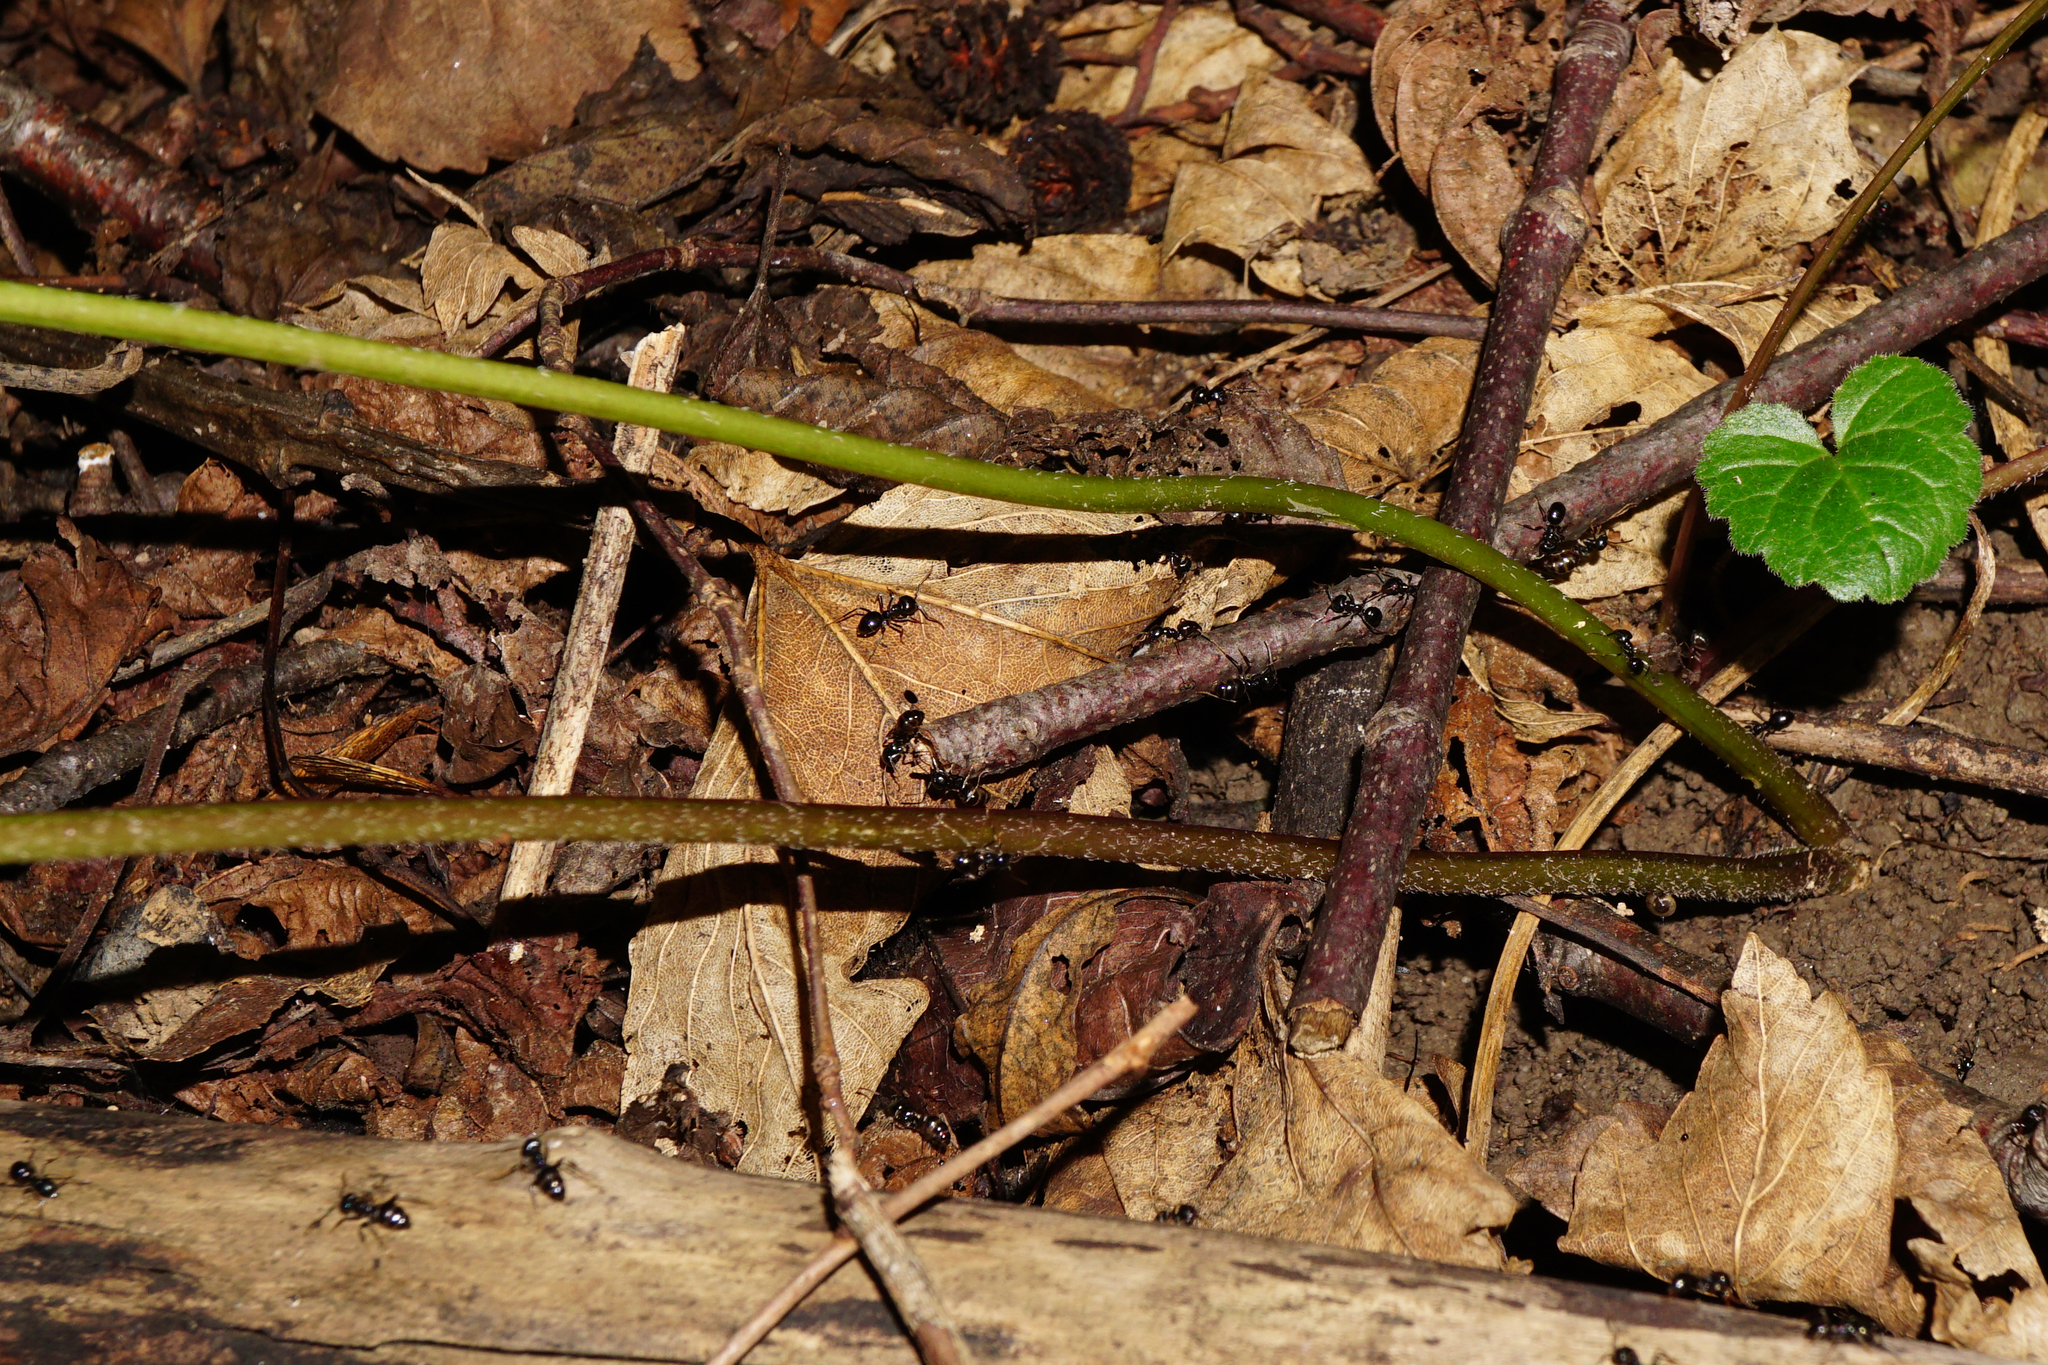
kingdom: Plantae
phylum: Tracheophyta
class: Magnoliopsida
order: Asterales
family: Campanulaceae
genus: Campanula
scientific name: Campanula trachelium
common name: Nettle-leaved bellflower
